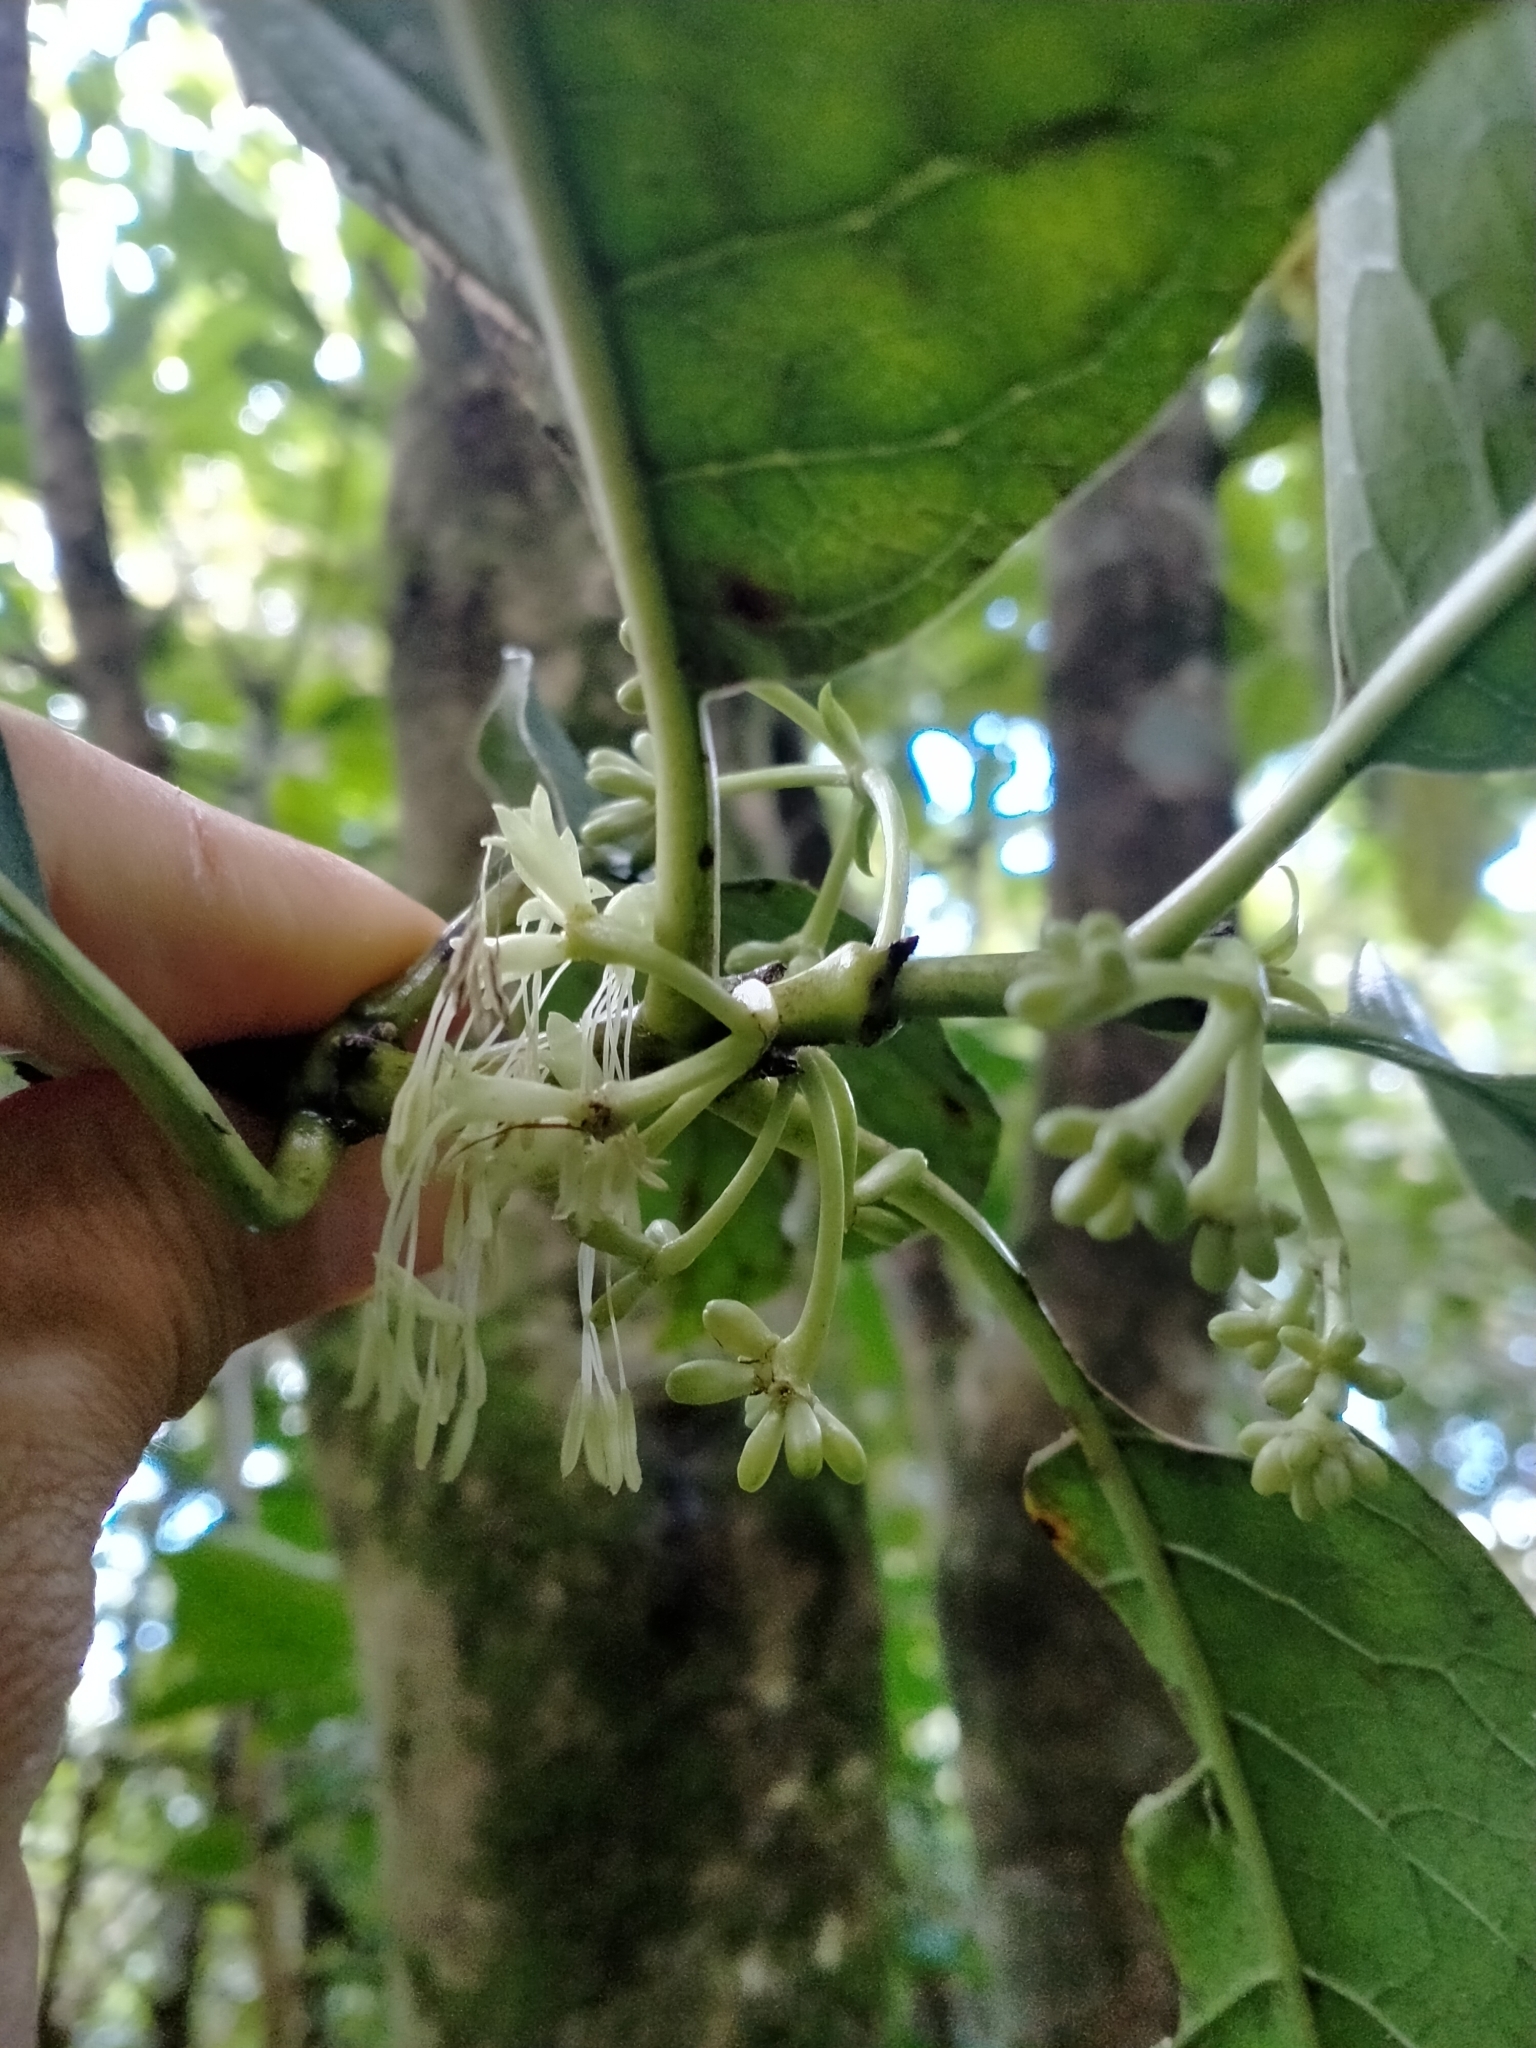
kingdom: Plantae
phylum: Tracheophyta
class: Magnoliopsida
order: Gentianales
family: Rubiaceae
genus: Coprosma
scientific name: Coprosma autumnalis
